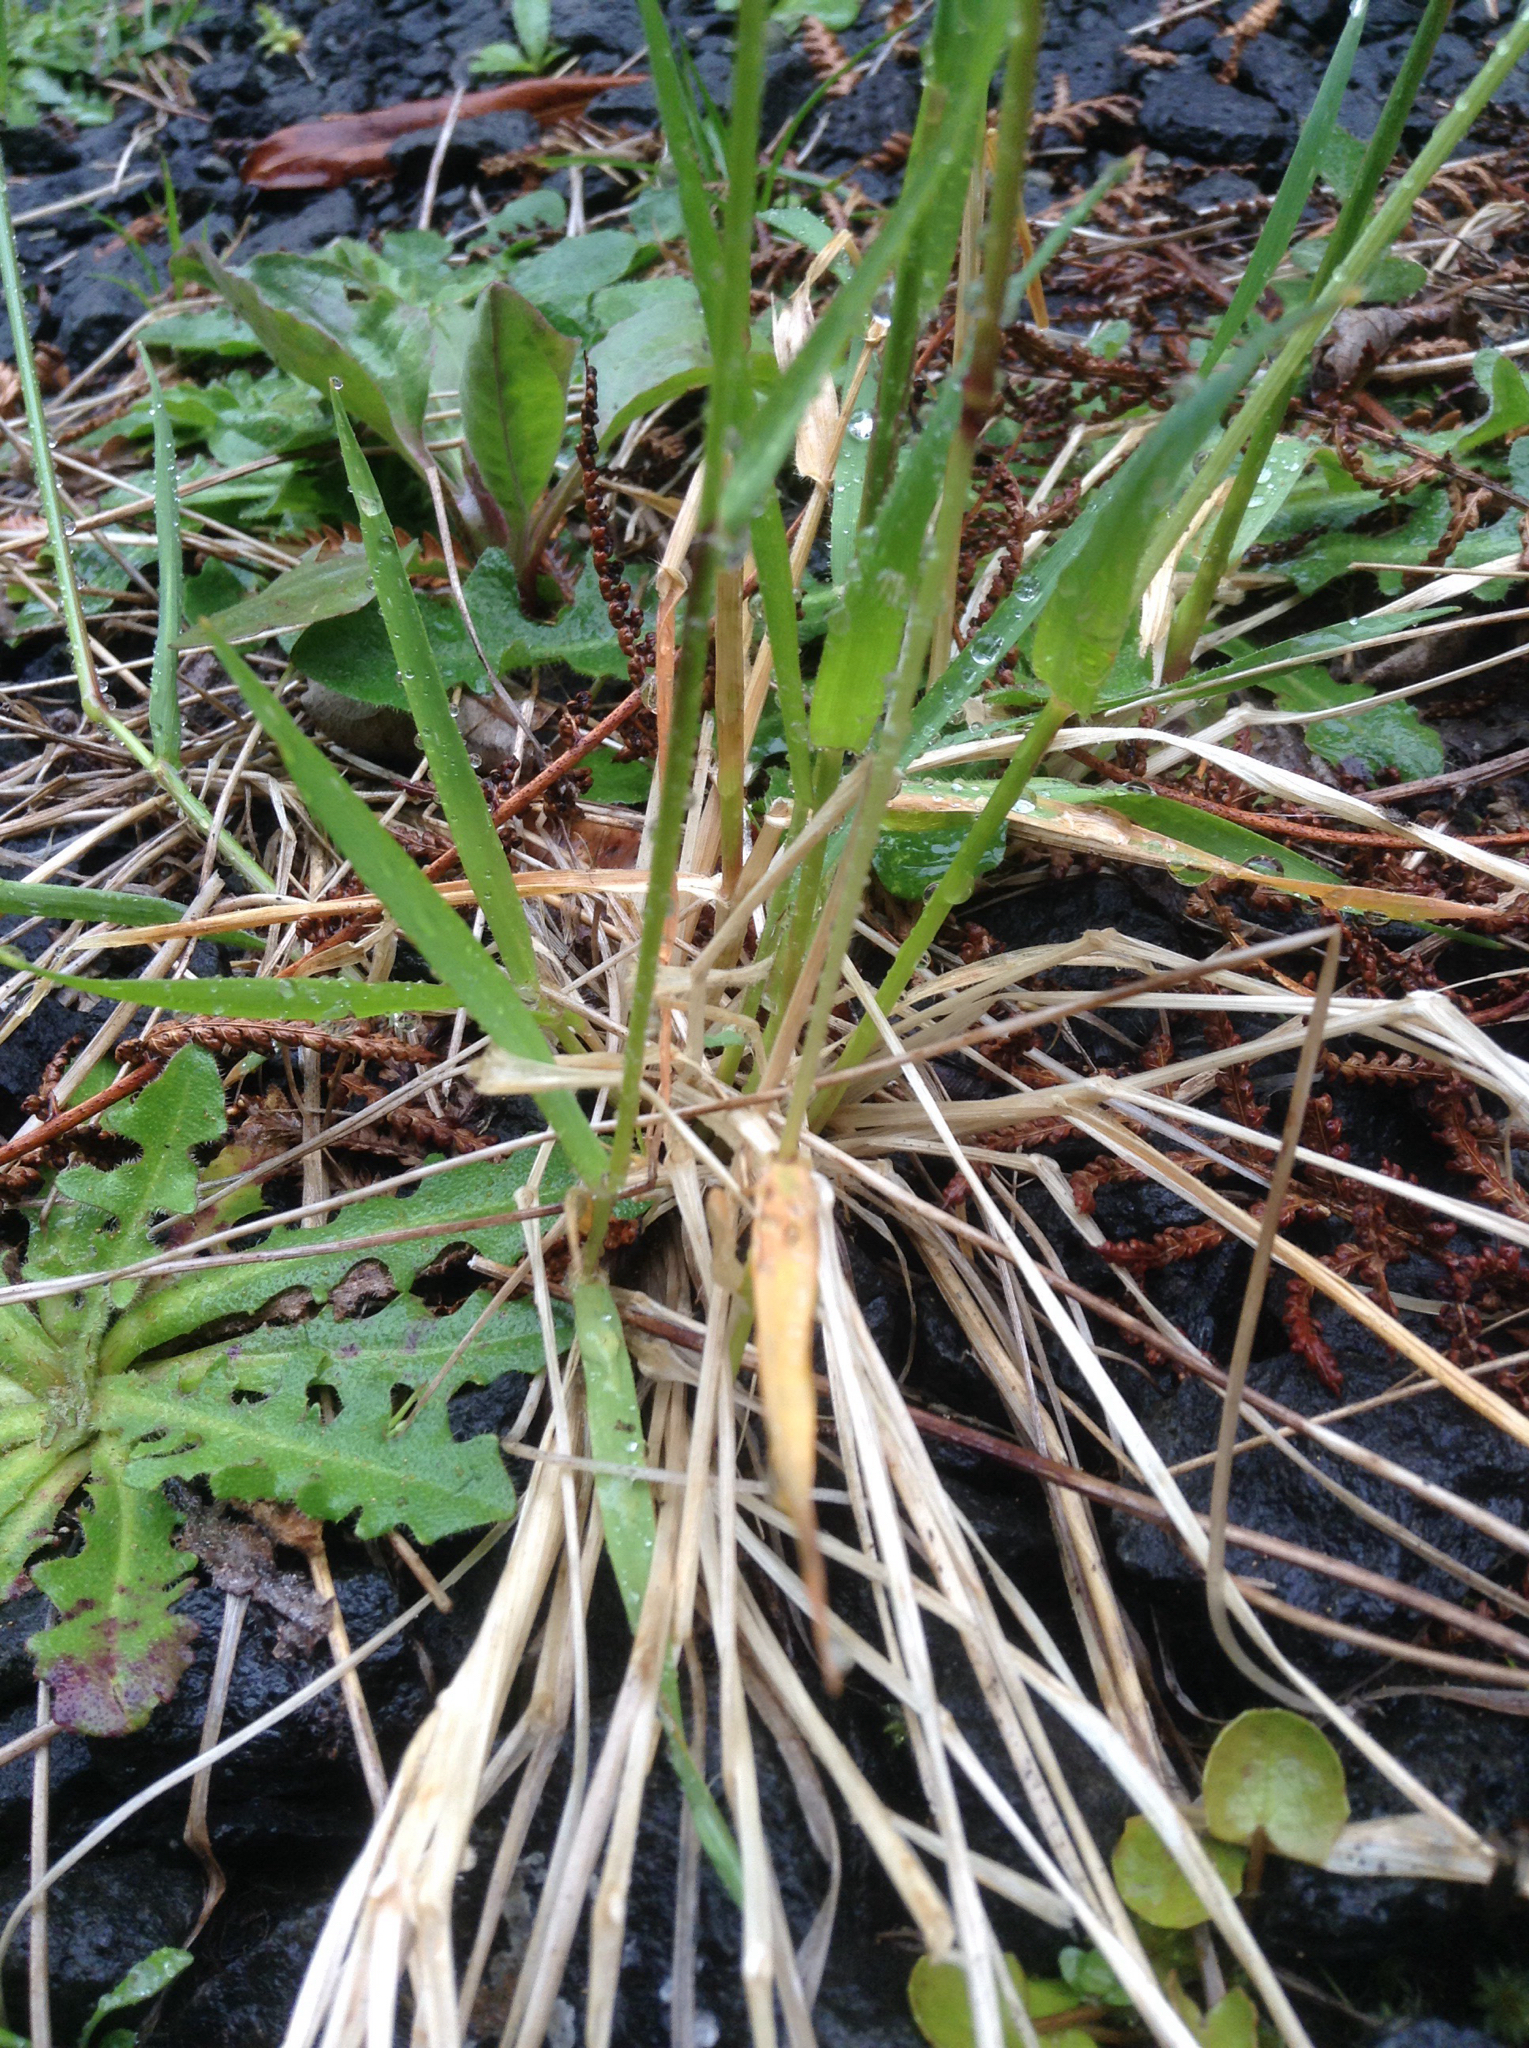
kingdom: Plantae
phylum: Tracheophyta
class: Liliopsida
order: Poales
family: Poaceae
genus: Anthoxanthum
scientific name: Anthoxanthum odoratum
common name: Sweet vernalgrass
